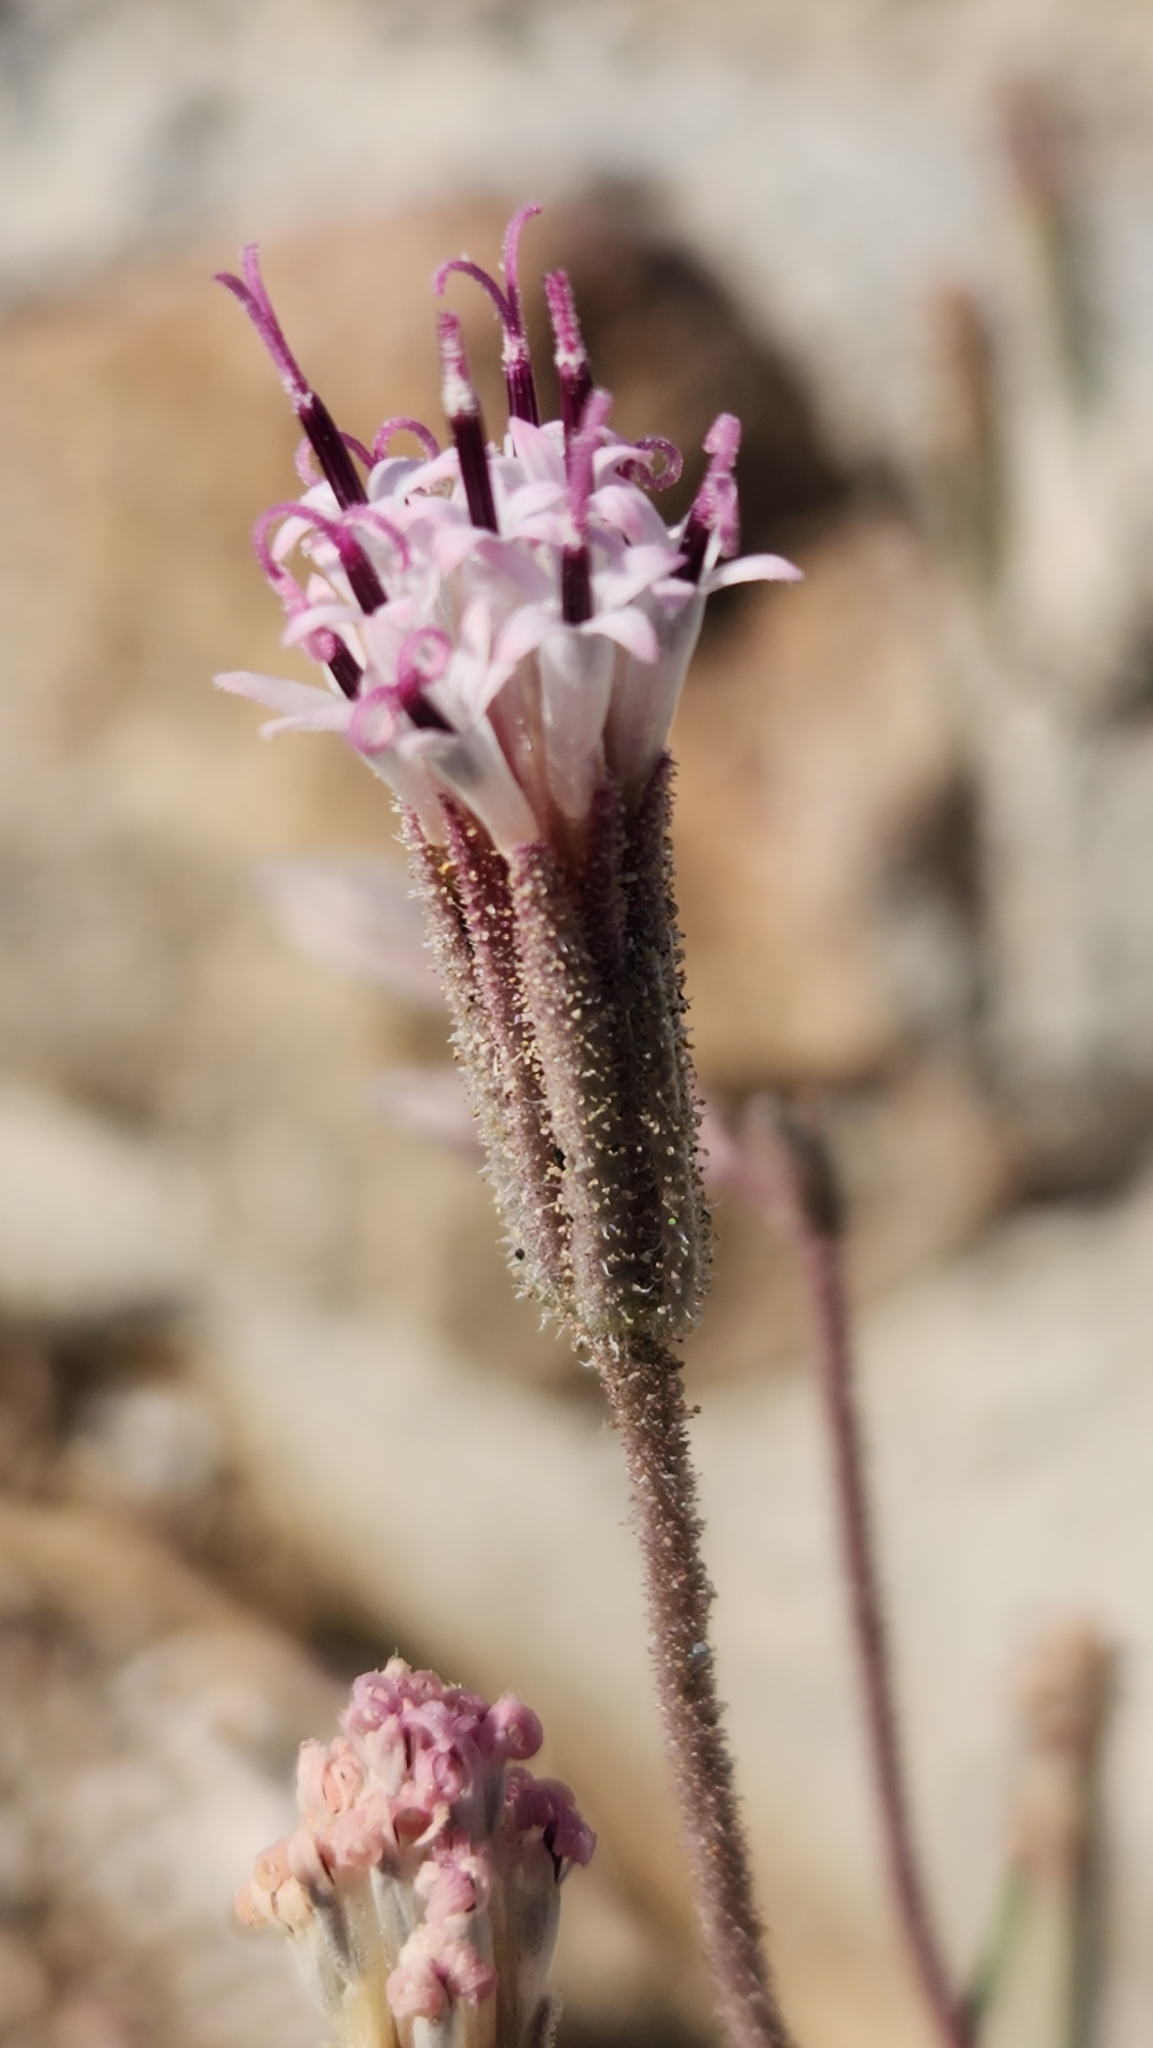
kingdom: Plantae
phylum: Tracheophyta
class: Magnoliopsida
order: Asterales
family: Asteraceae
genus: Palafoxia
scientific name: Palafoxia arida
